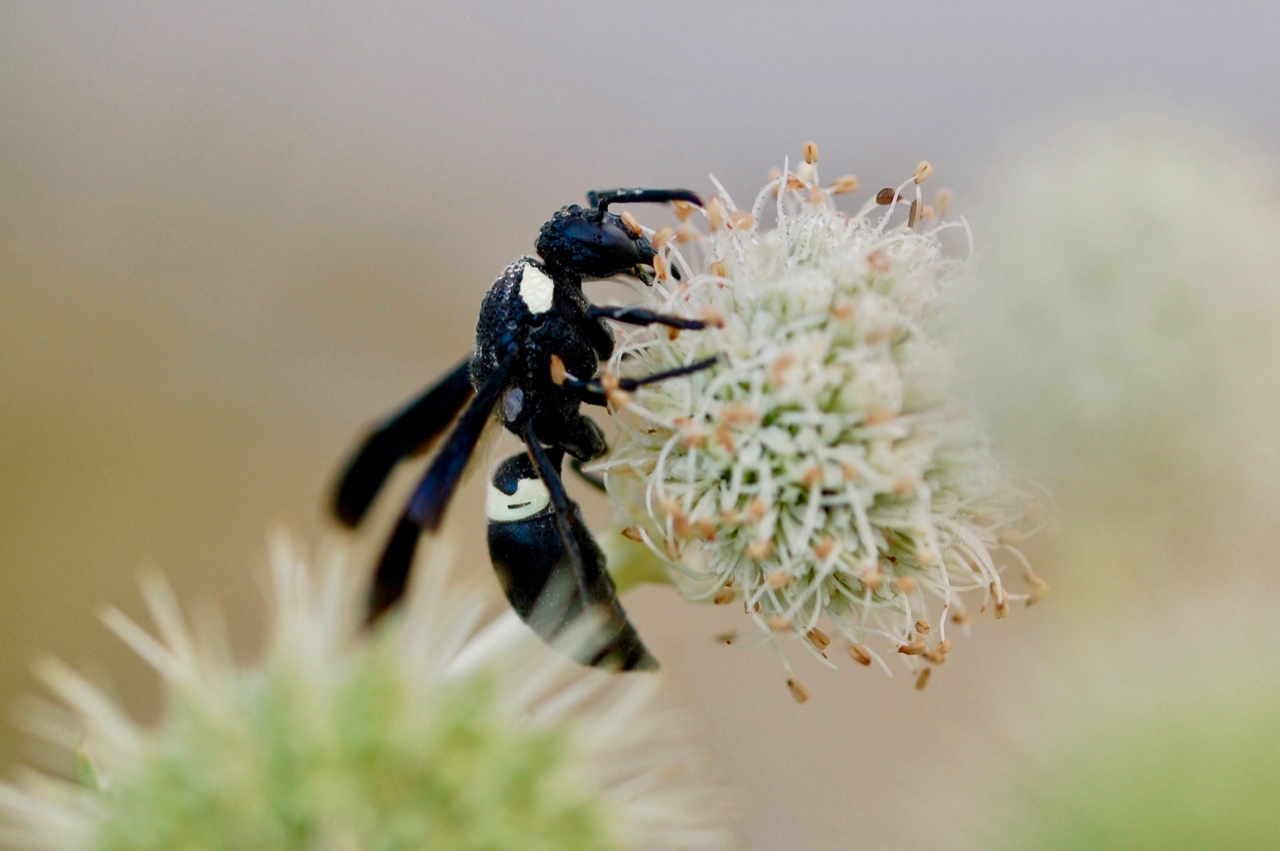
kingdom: Animalia
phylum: Arthropoda
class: Insecta
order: Hymenoptera
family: Eumenidae
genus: Monobia
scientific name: Monobia quadridens
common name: Four-toothed mason wasp
